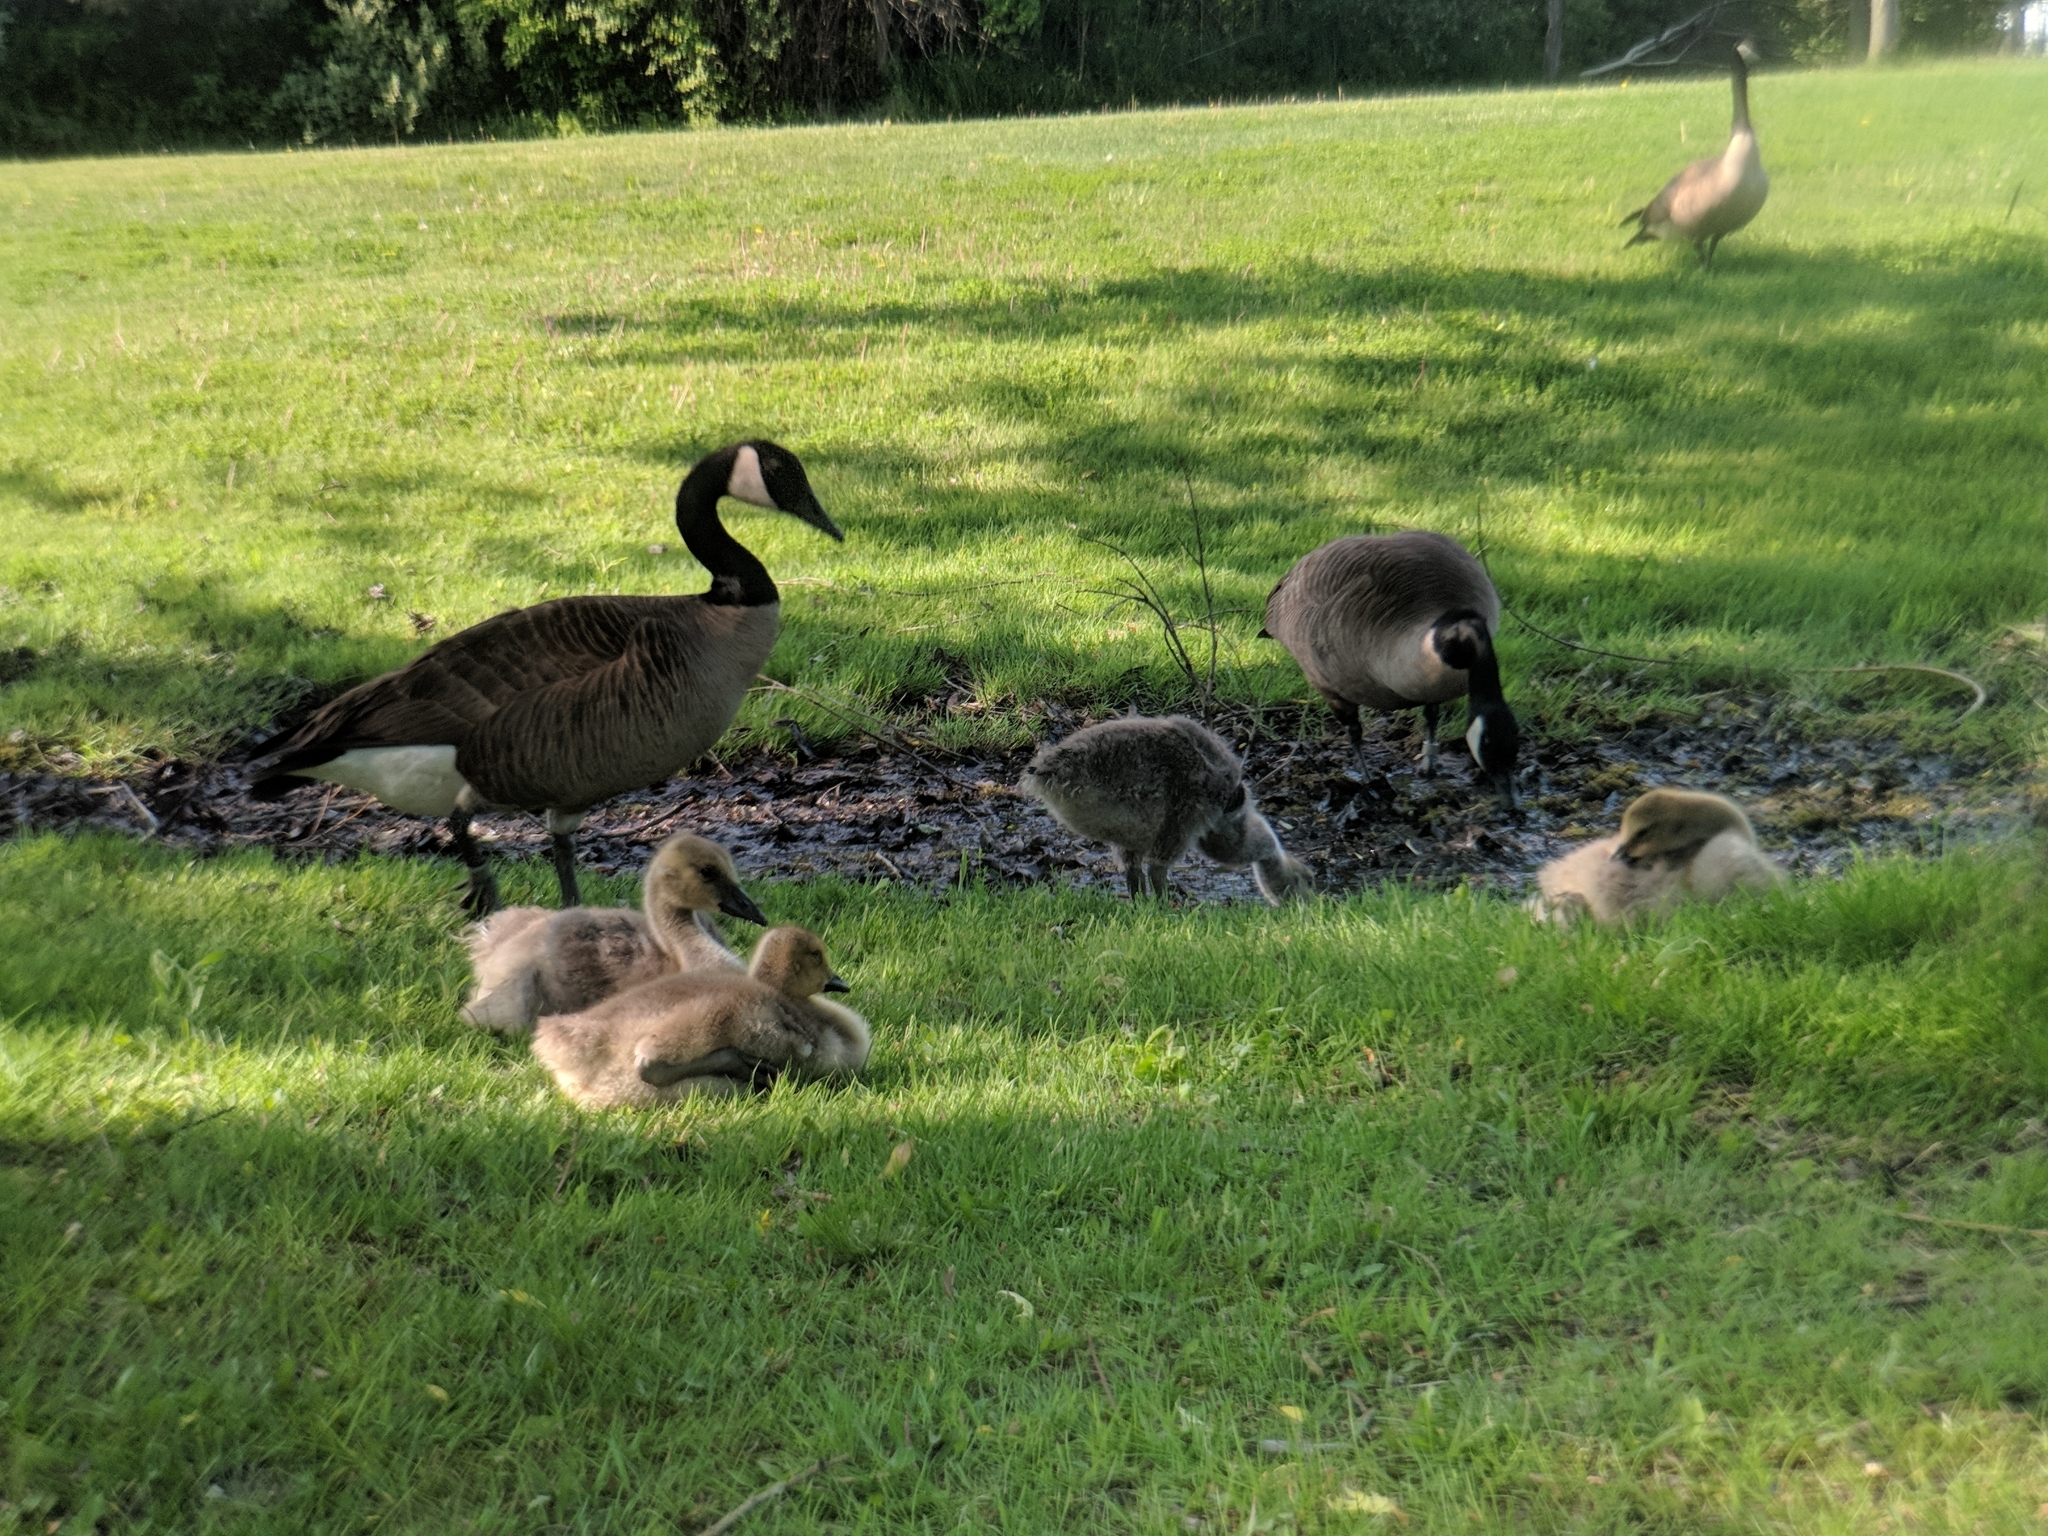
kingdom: Animalia
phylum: Chordata
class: Aves
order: Anseriformes
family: Anatidae
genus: Branta
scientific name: Branta canadensis
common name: Canada goose
